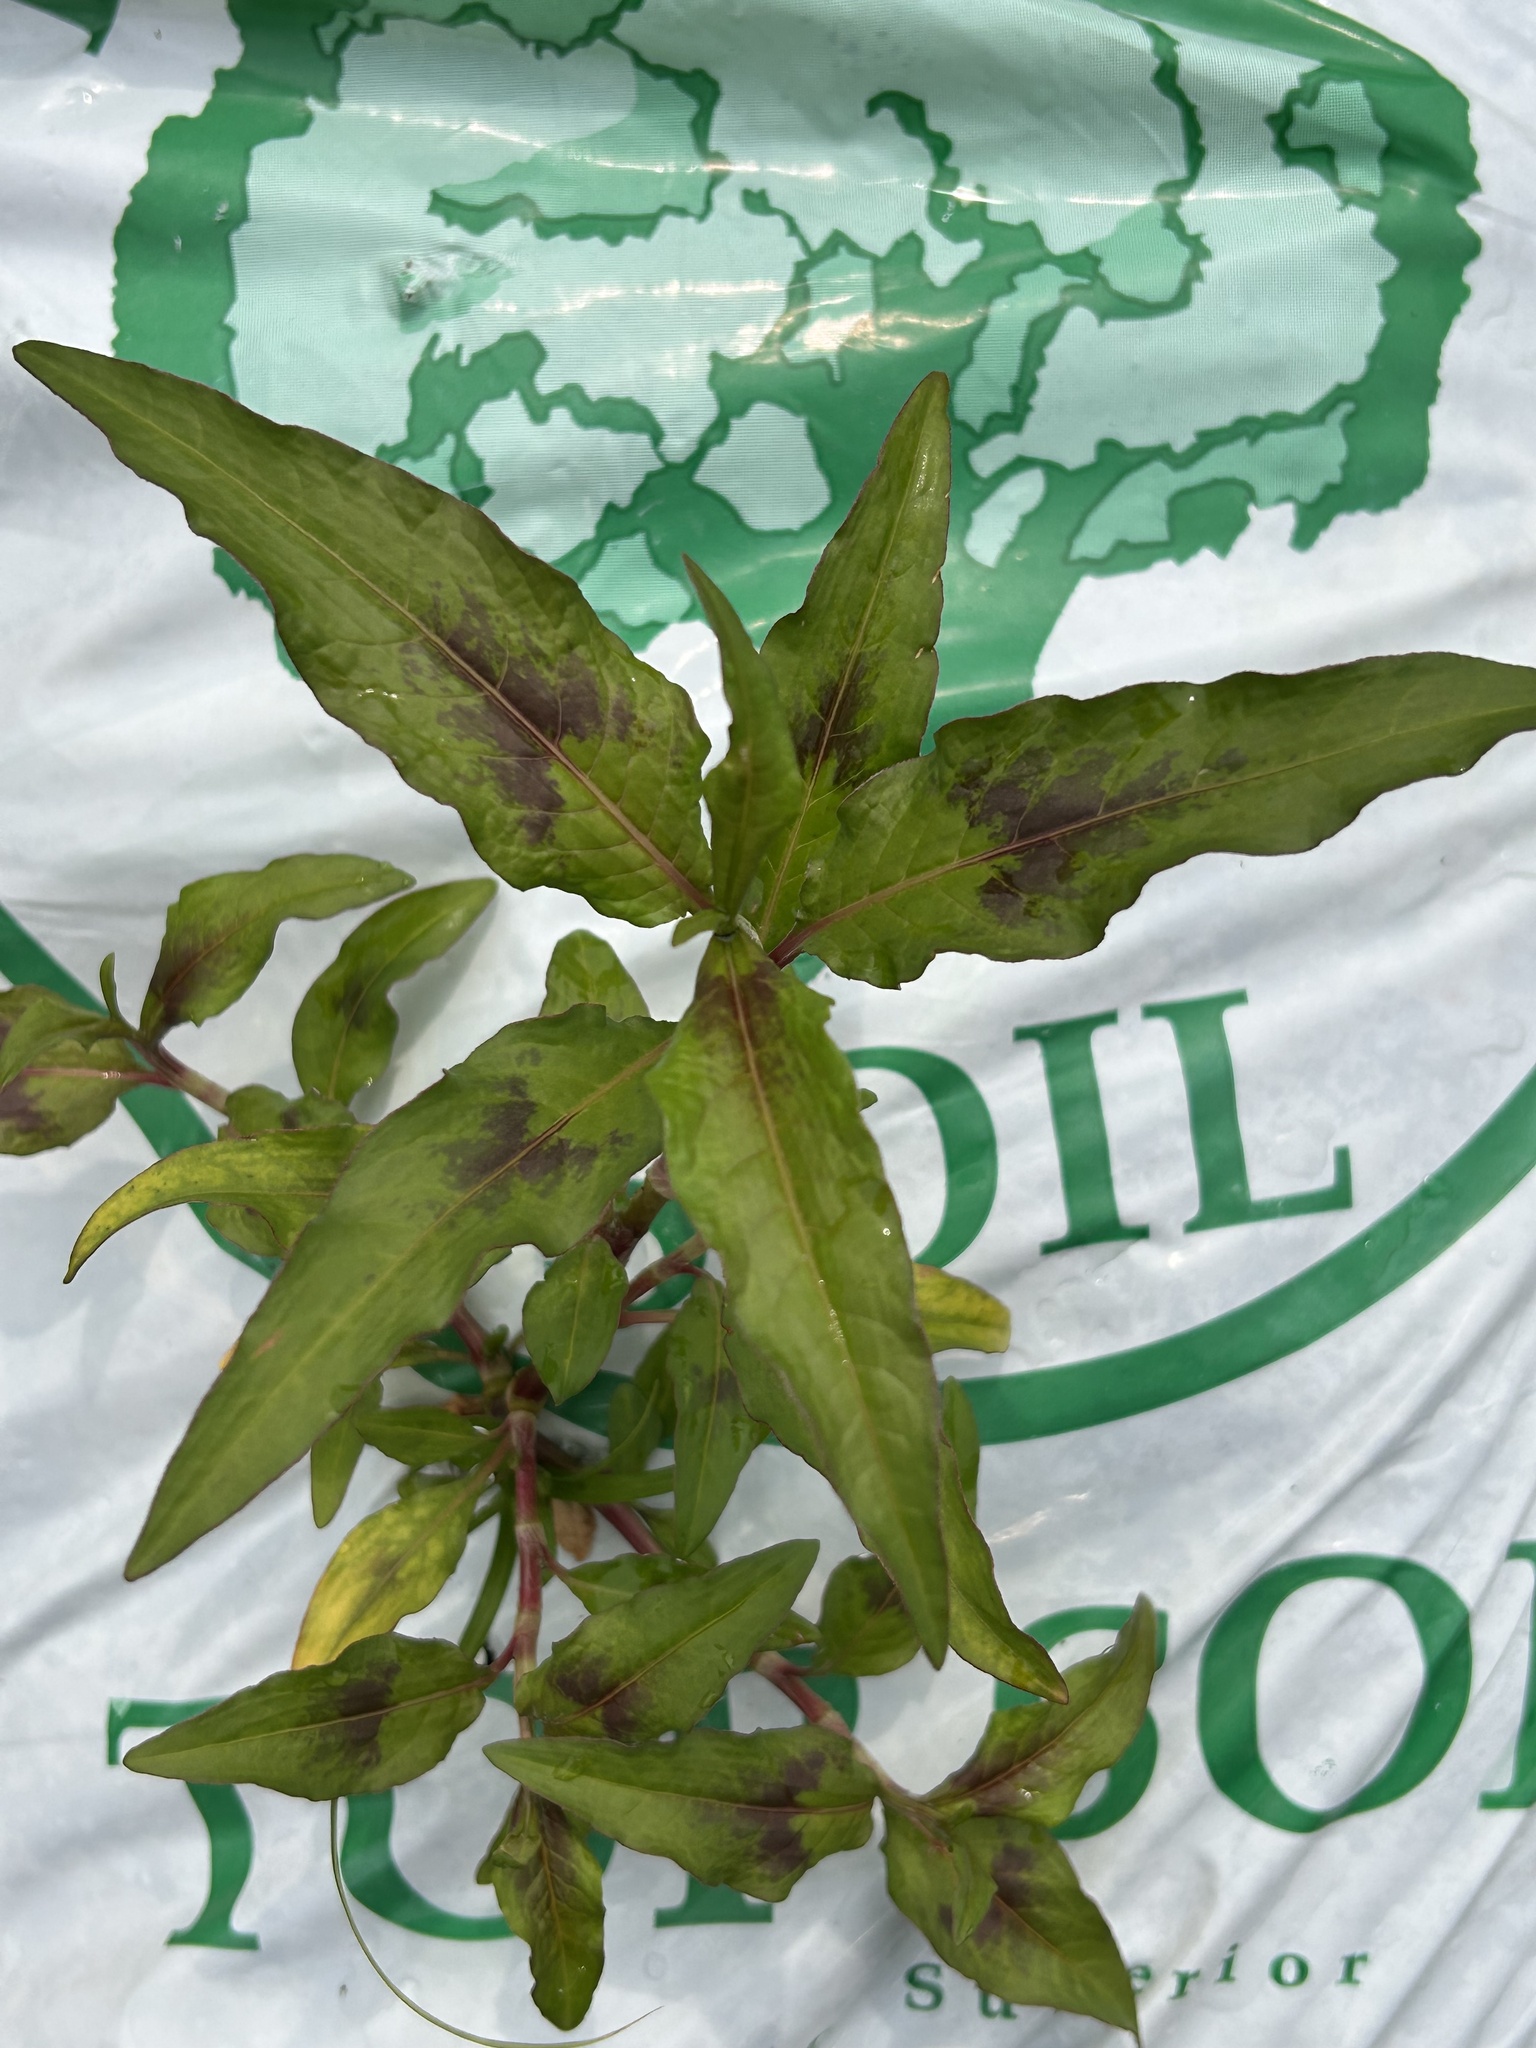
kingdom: Plantae
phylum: Tracheophyta
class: Magnoliopsida
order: Caryophyllales
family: Polygonaceae
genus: Persicaria
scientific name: Persicaria maculosa
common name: Redshank
